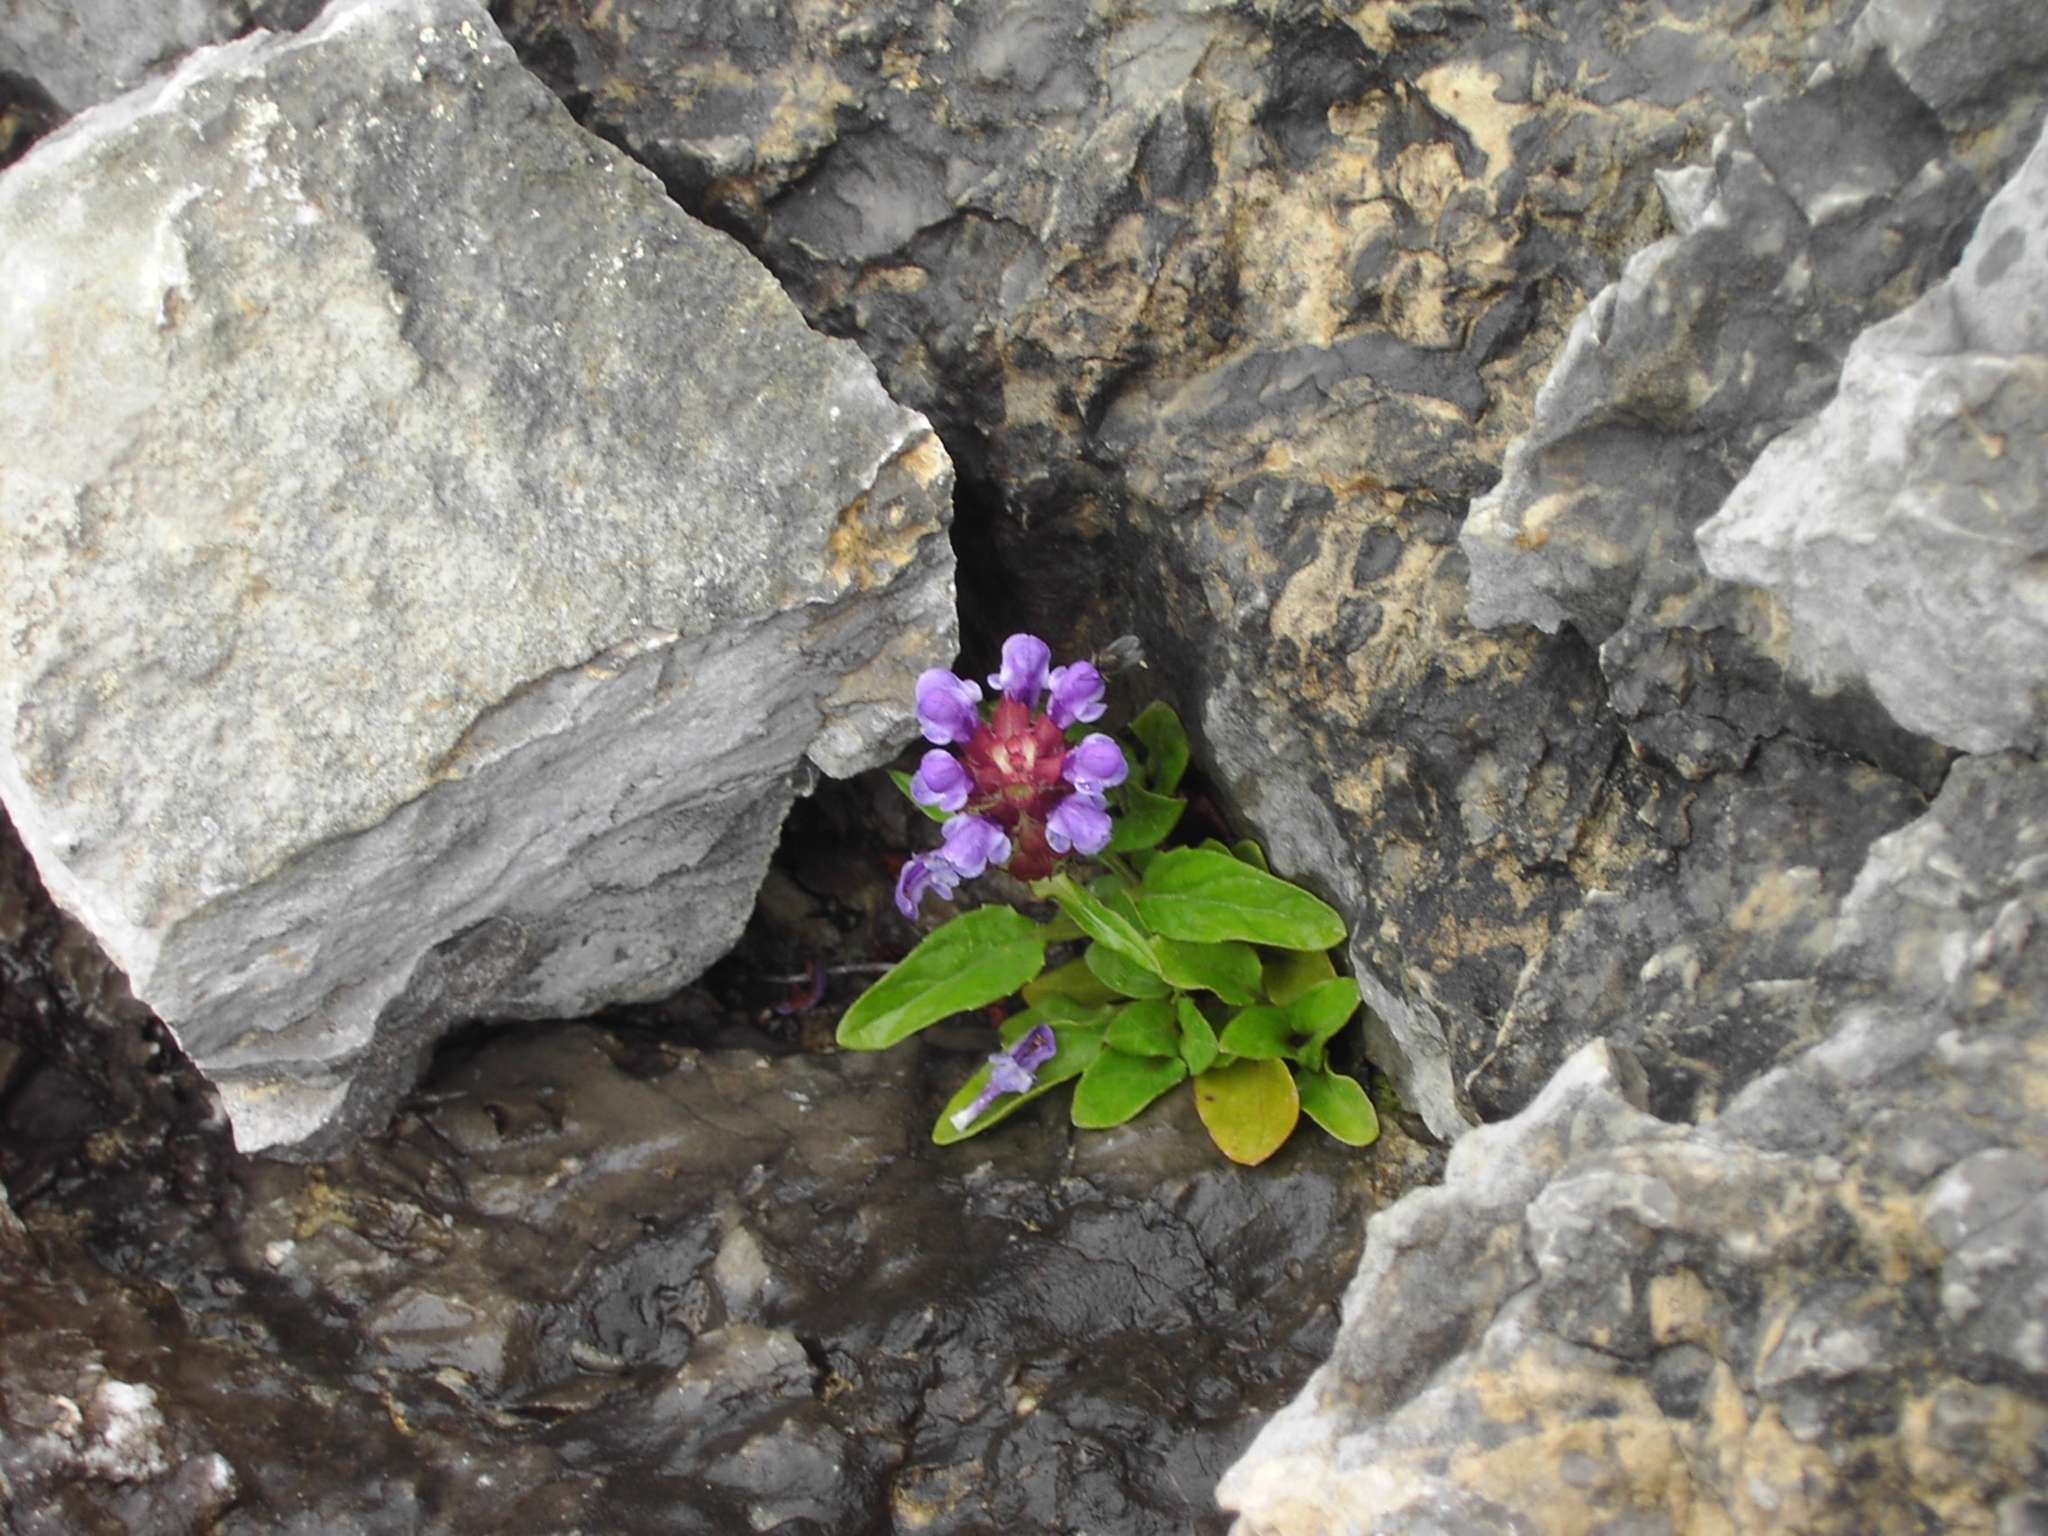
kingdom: Plantae
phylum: Tracheophyta
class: Magnoliopsida
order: Lamiales
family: Lamiaceae
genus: Prunella
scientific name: Prunella vulgaris
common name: Heal-all
